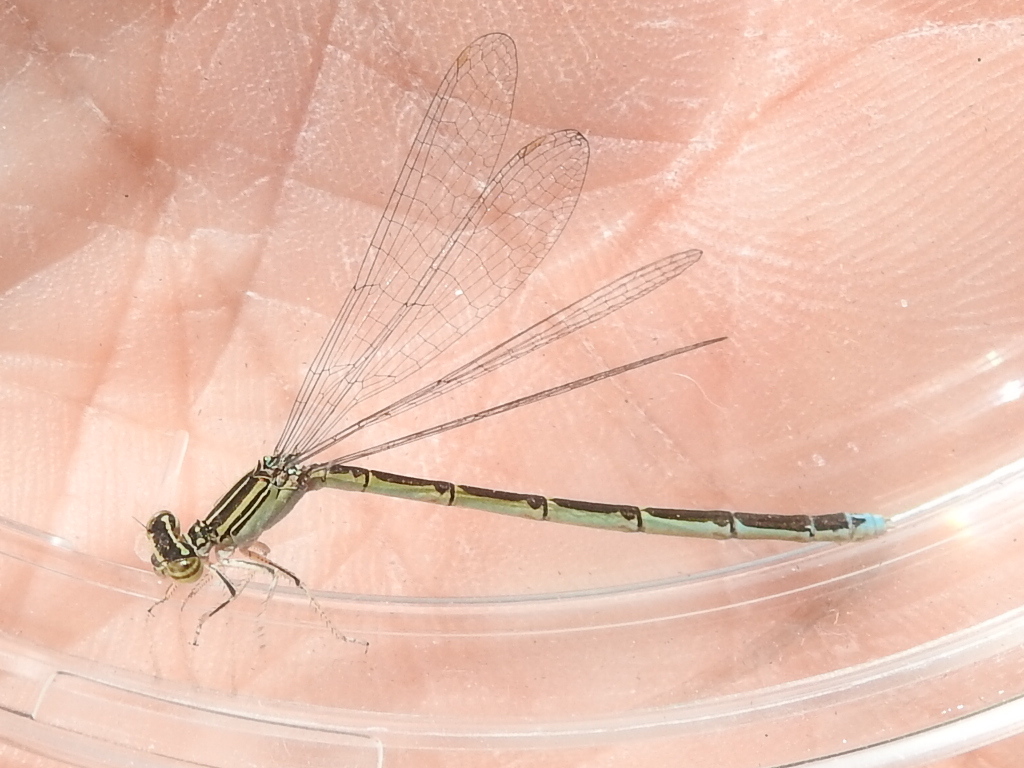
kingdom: Animalia
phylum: Arthropoda
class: Insecta
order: Odonata
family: Coenagrionidae
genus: Enallagma
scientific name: Enallagma basidens
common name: Double-striped bluet
